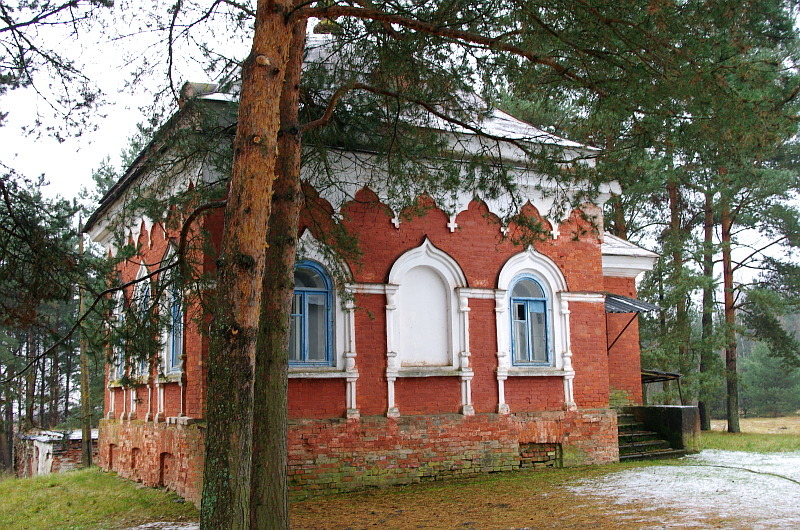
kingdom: Plantae
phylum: Tracheophyta
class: Pinopsida
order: Pinales
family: Pinaceae
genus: Pinus
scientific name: Pinus sylvestris
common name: Scots pine
